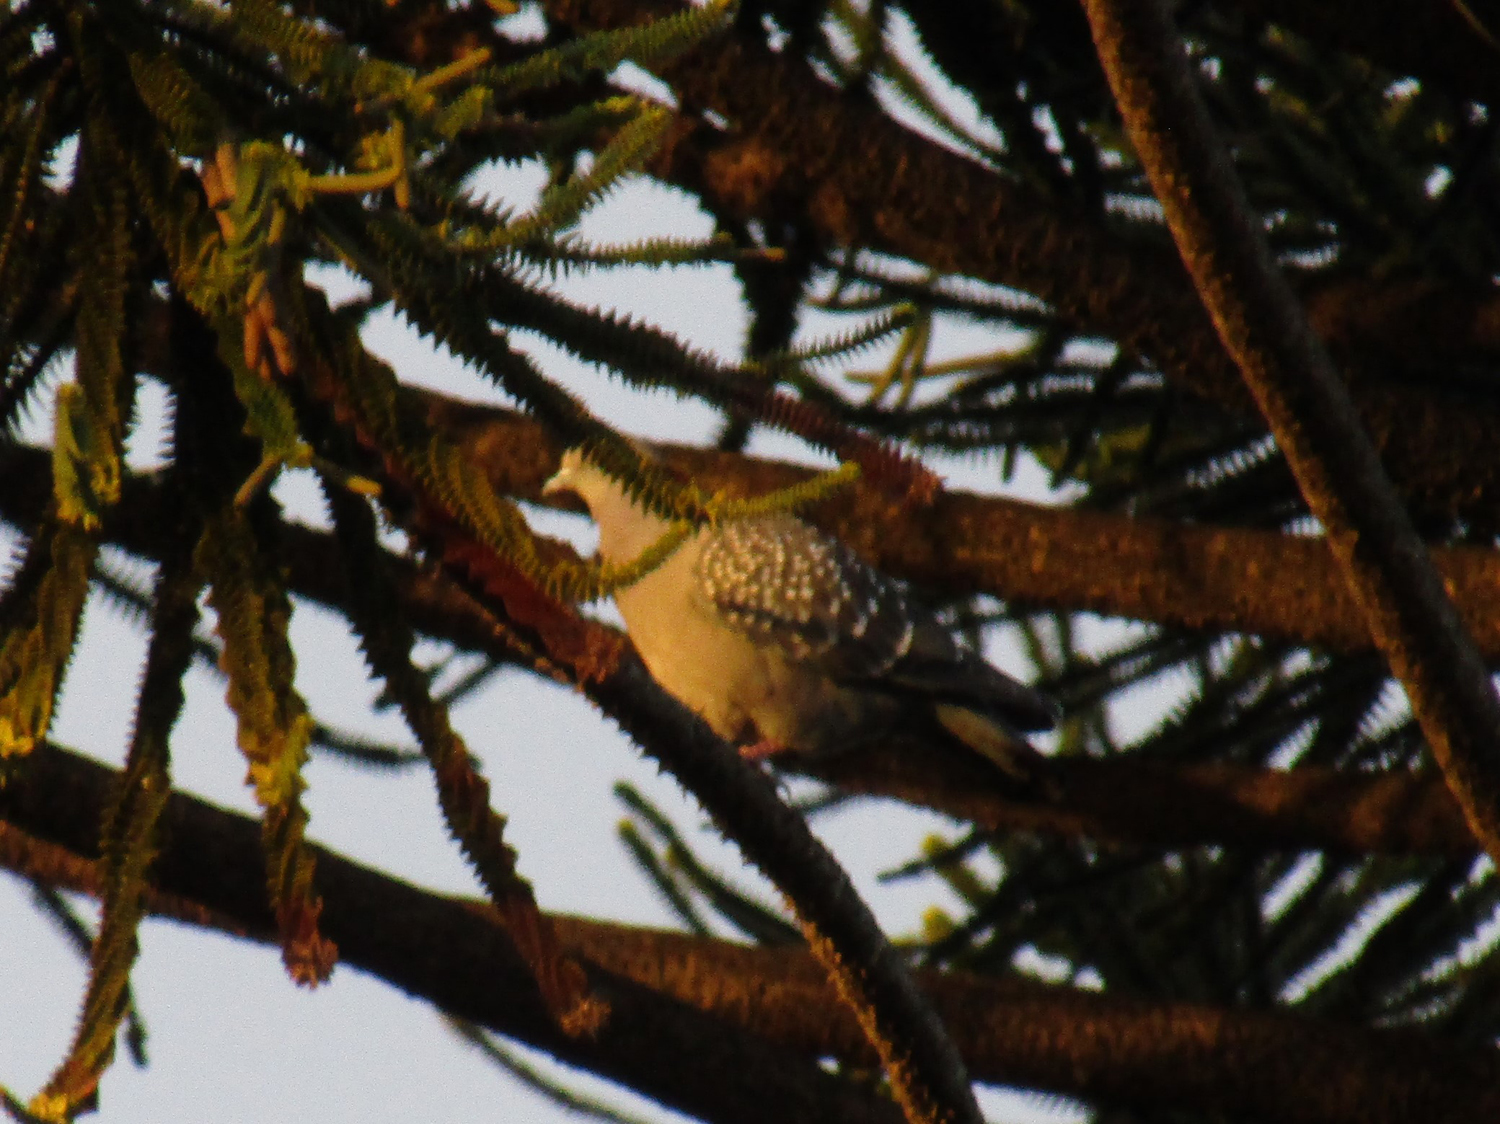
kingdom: Animalia
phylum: Chordata
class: Aves
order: Columbiformes
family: Columbidae
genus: Patagioenas
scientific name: Patagioenas maculosa
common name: Spot-winged pigeon
